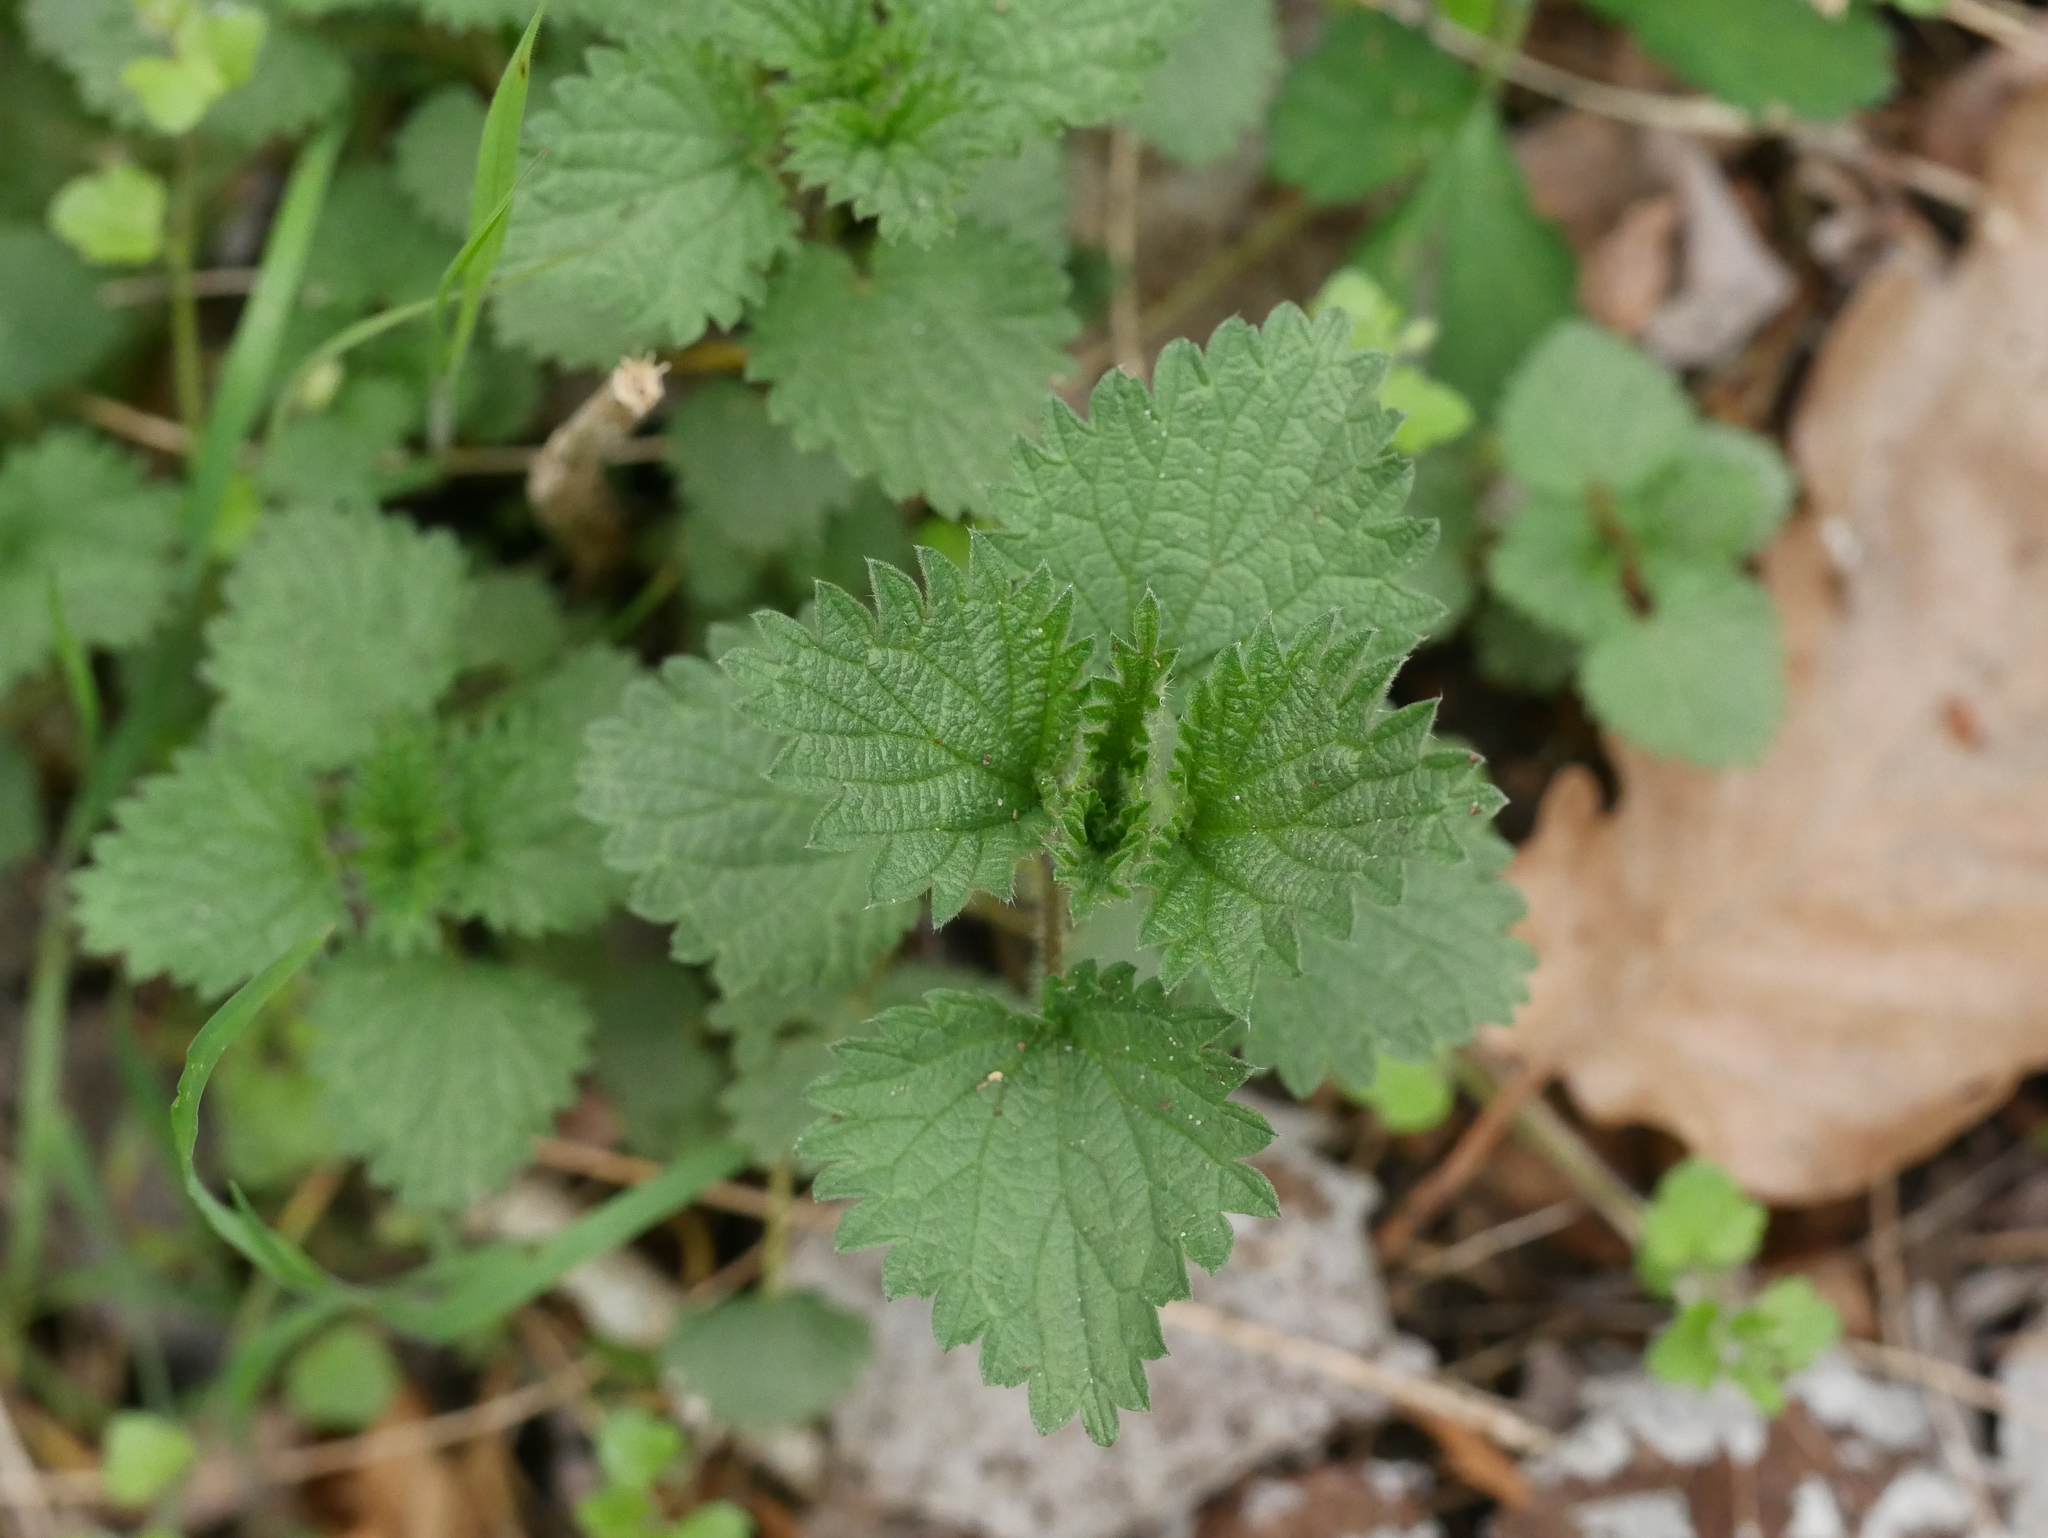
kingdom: Plantae
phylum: Tracheophyta
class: Magnoliopsida
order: Rosales
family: Urticaceae
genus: Urtica
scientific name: Urtica dioica
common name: Common nettle
